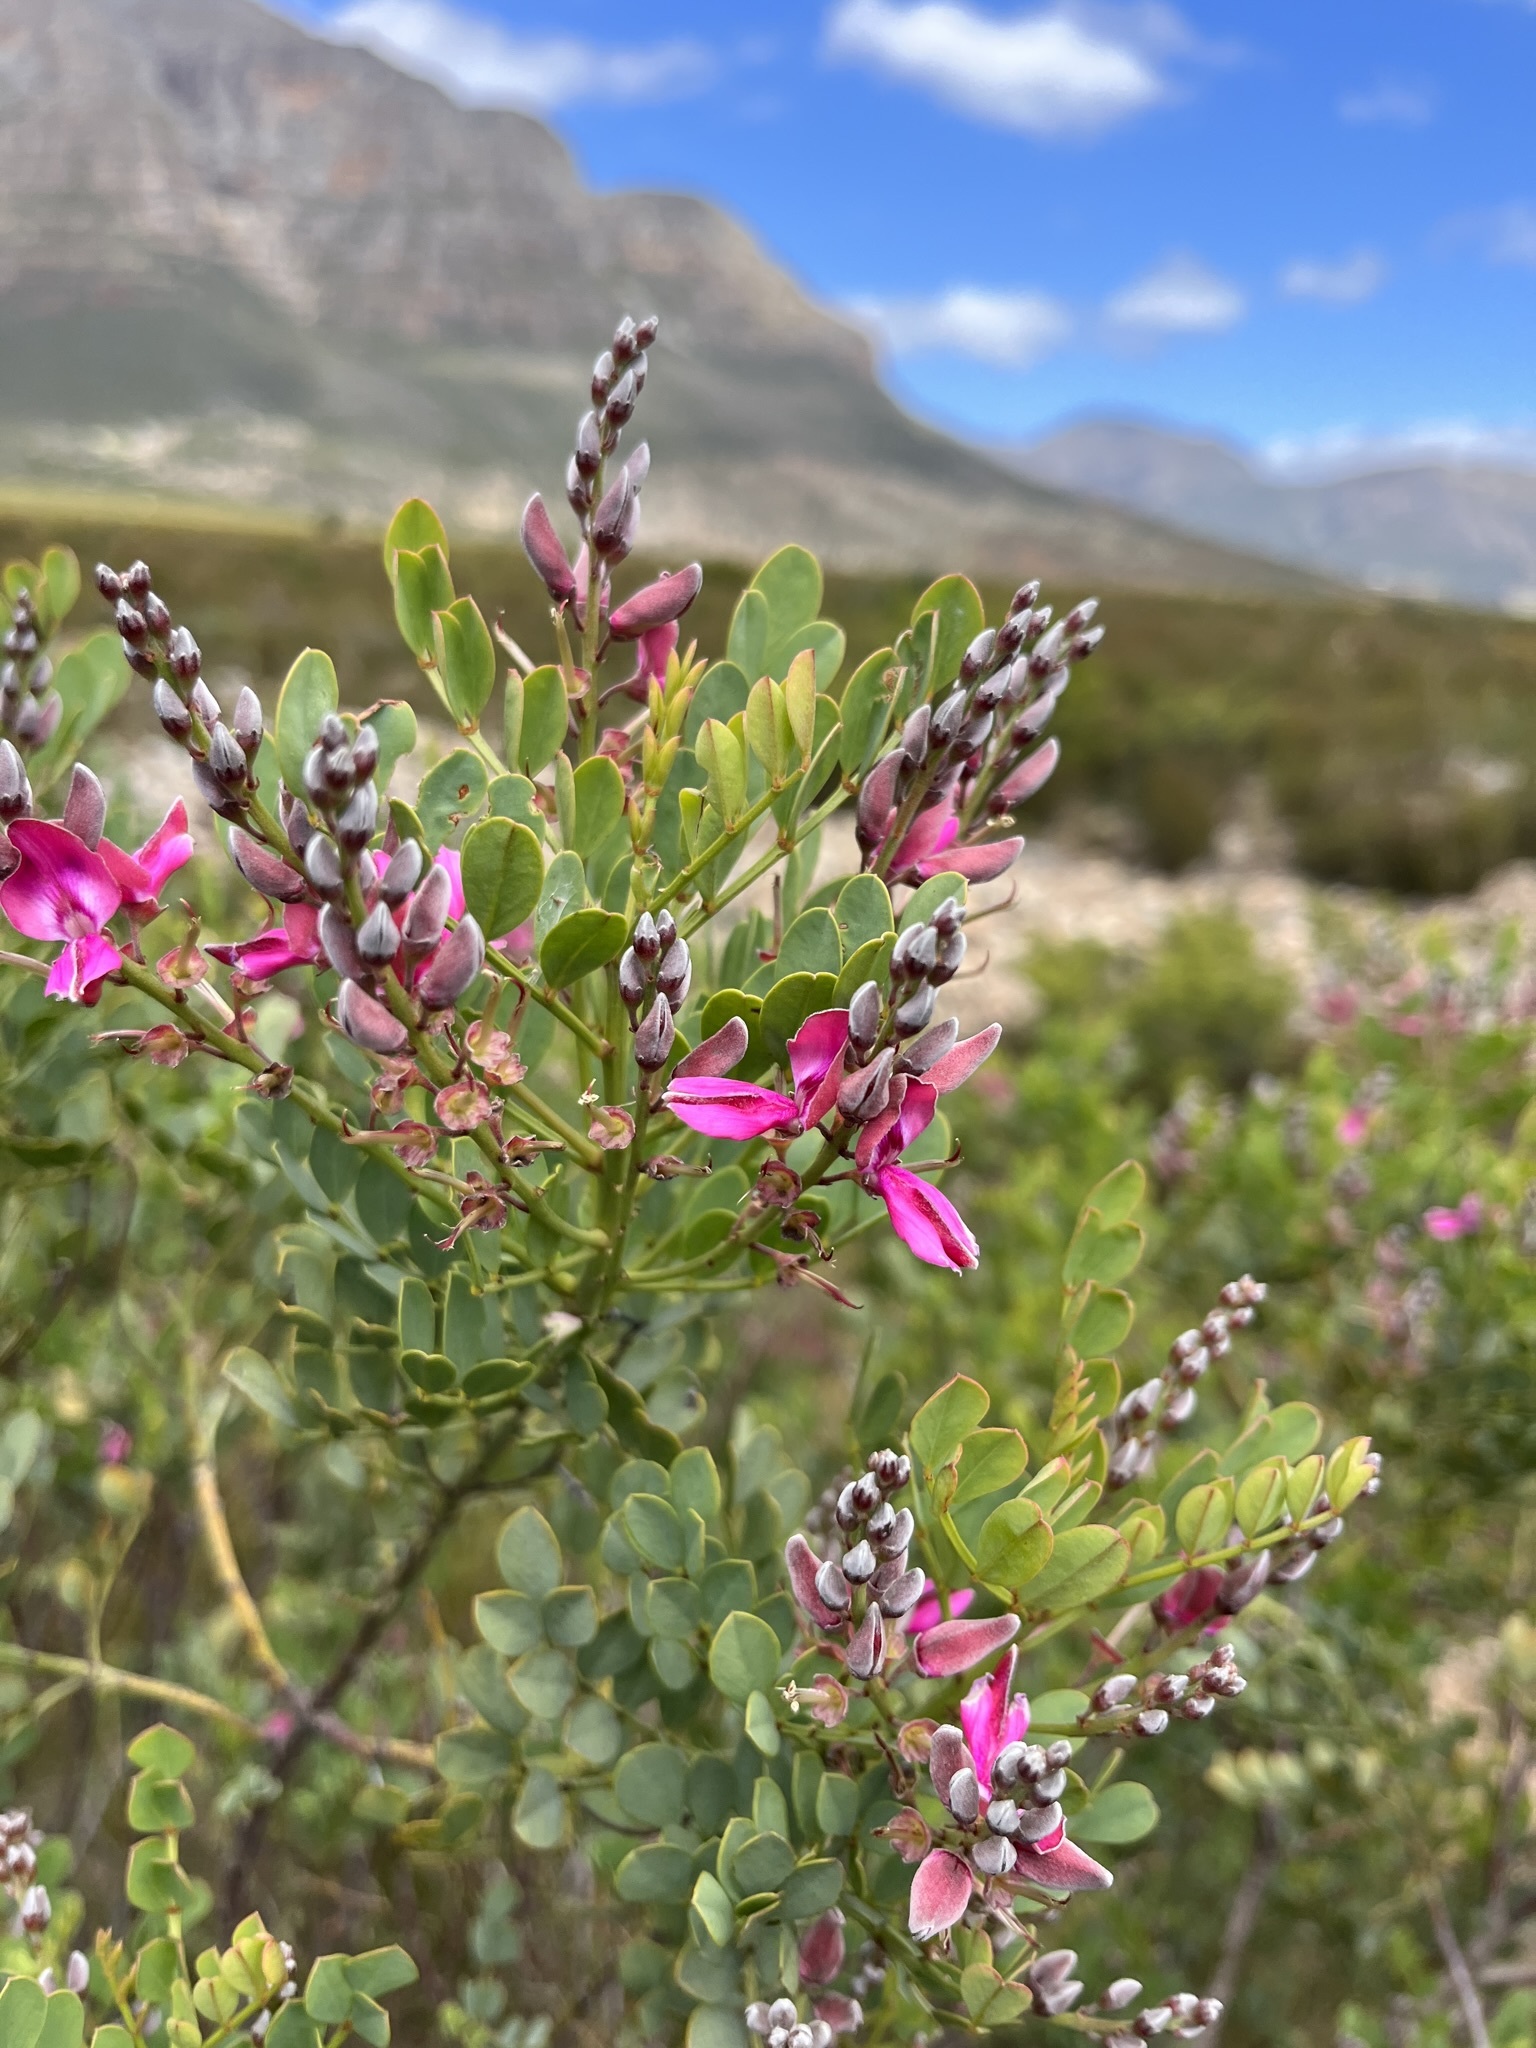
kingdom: Plantae
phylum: Tracheophyta
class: Magnoliopsida
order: Fabales
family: Fabaceae
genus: Indigofera
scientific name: Indigofera frutescens
